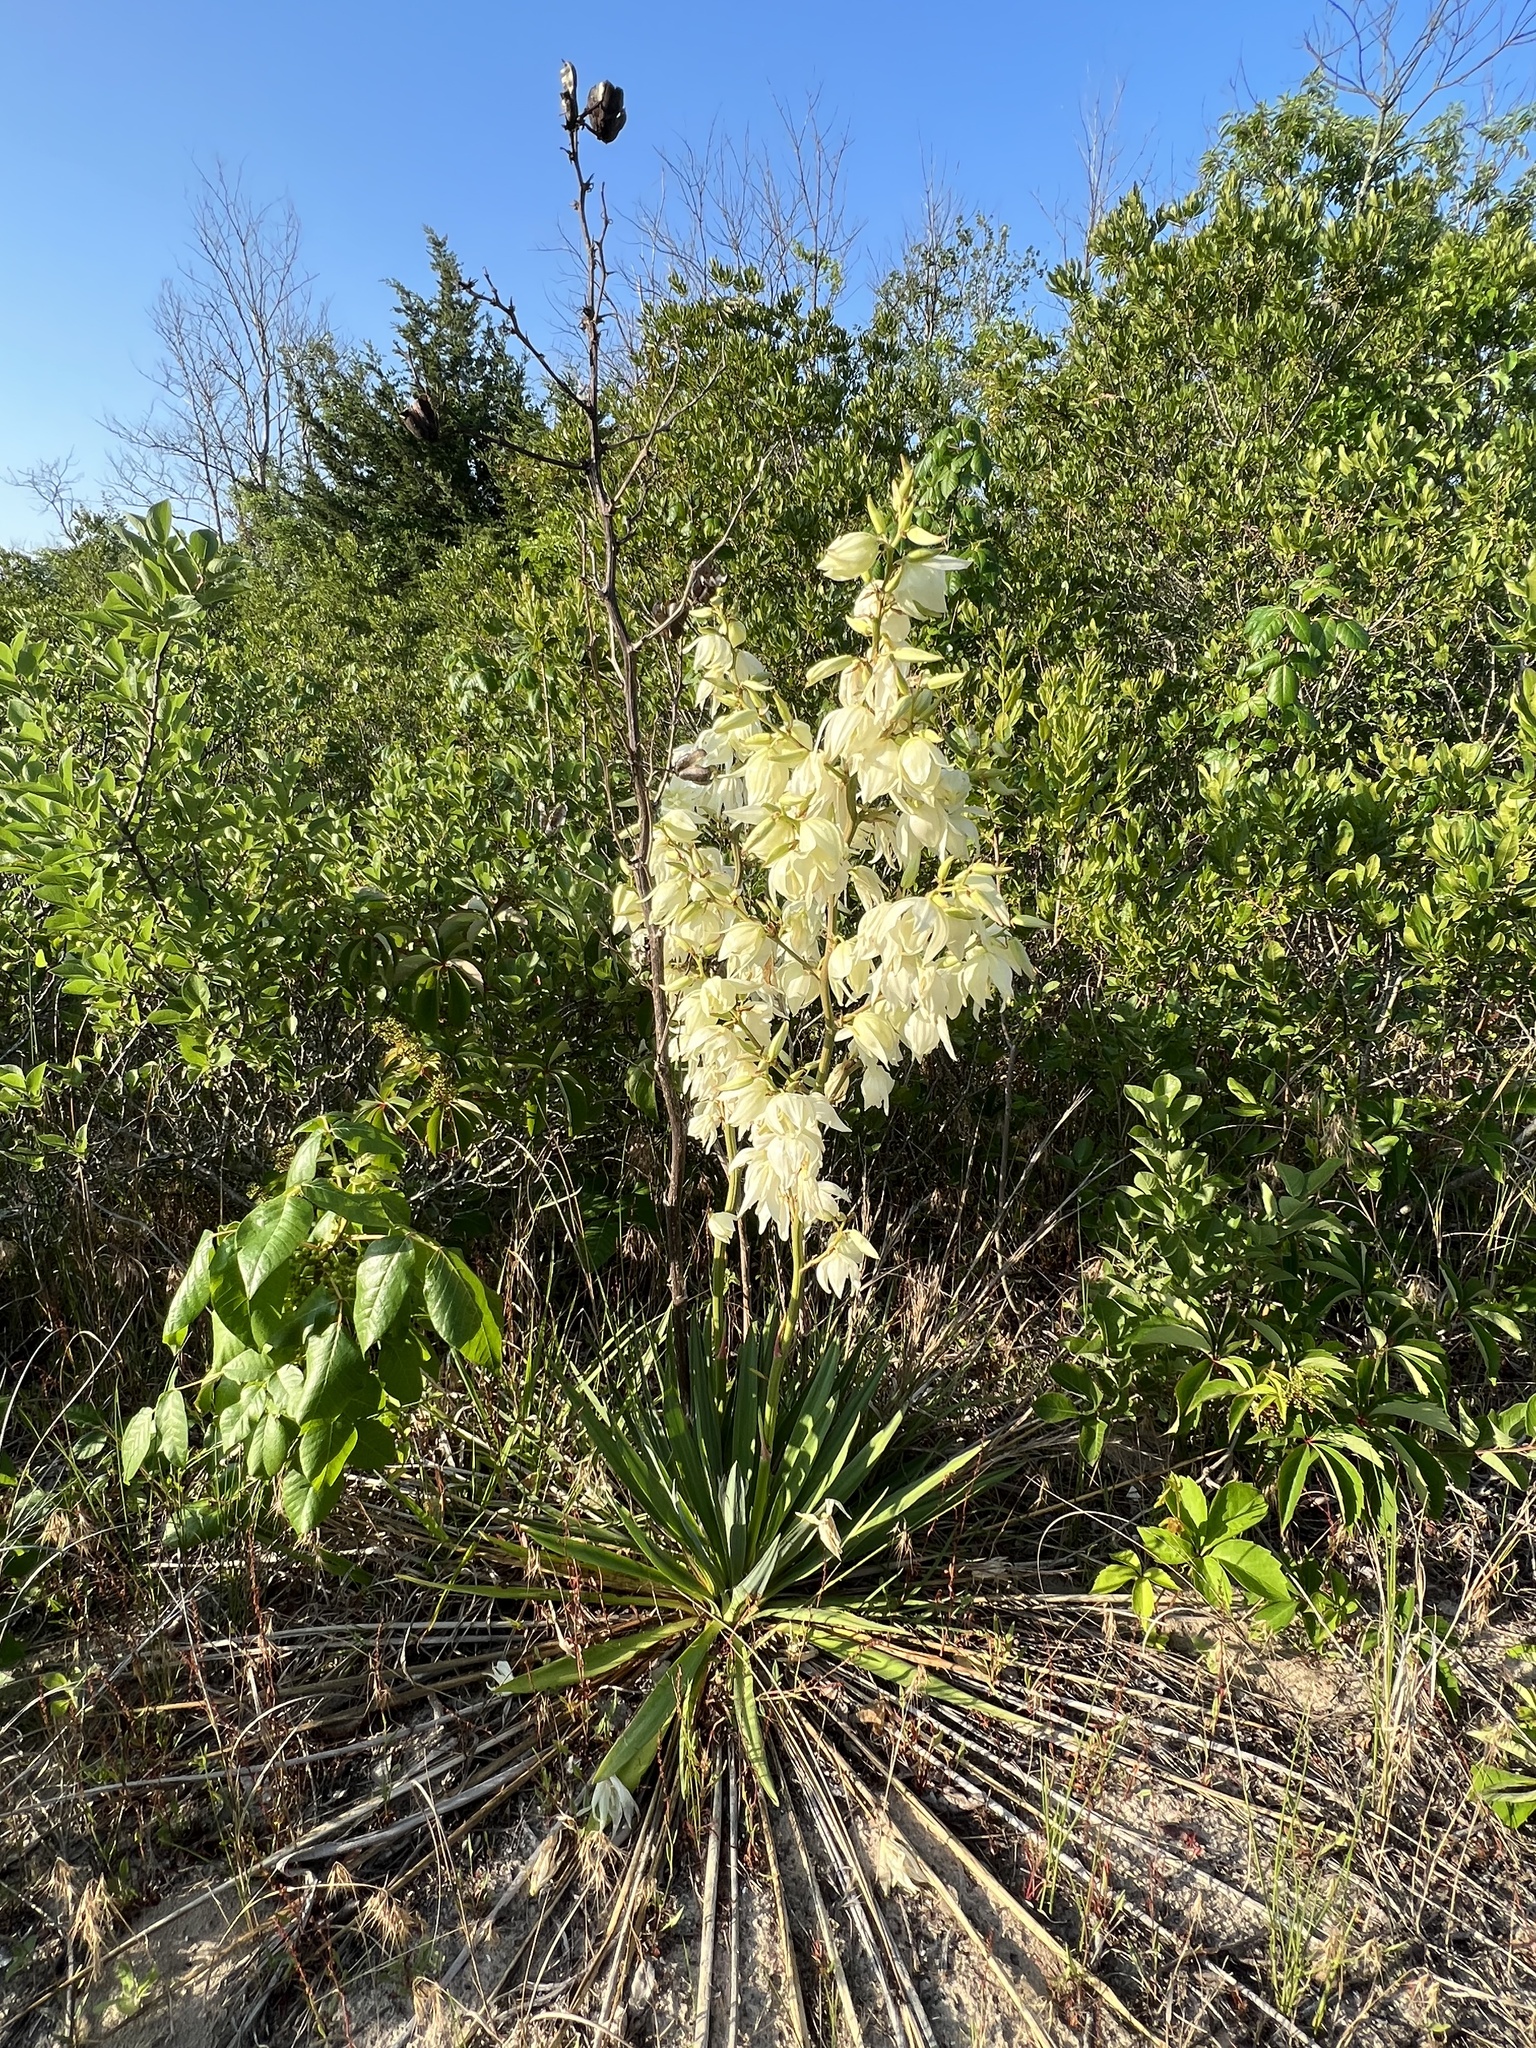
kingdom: Plantae
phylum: Tracheophyta
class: Liliopsida
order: Asparagales
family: Asparagaceae
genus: Yucca
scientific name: Yucca filamentosa
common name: Adam's-needle
